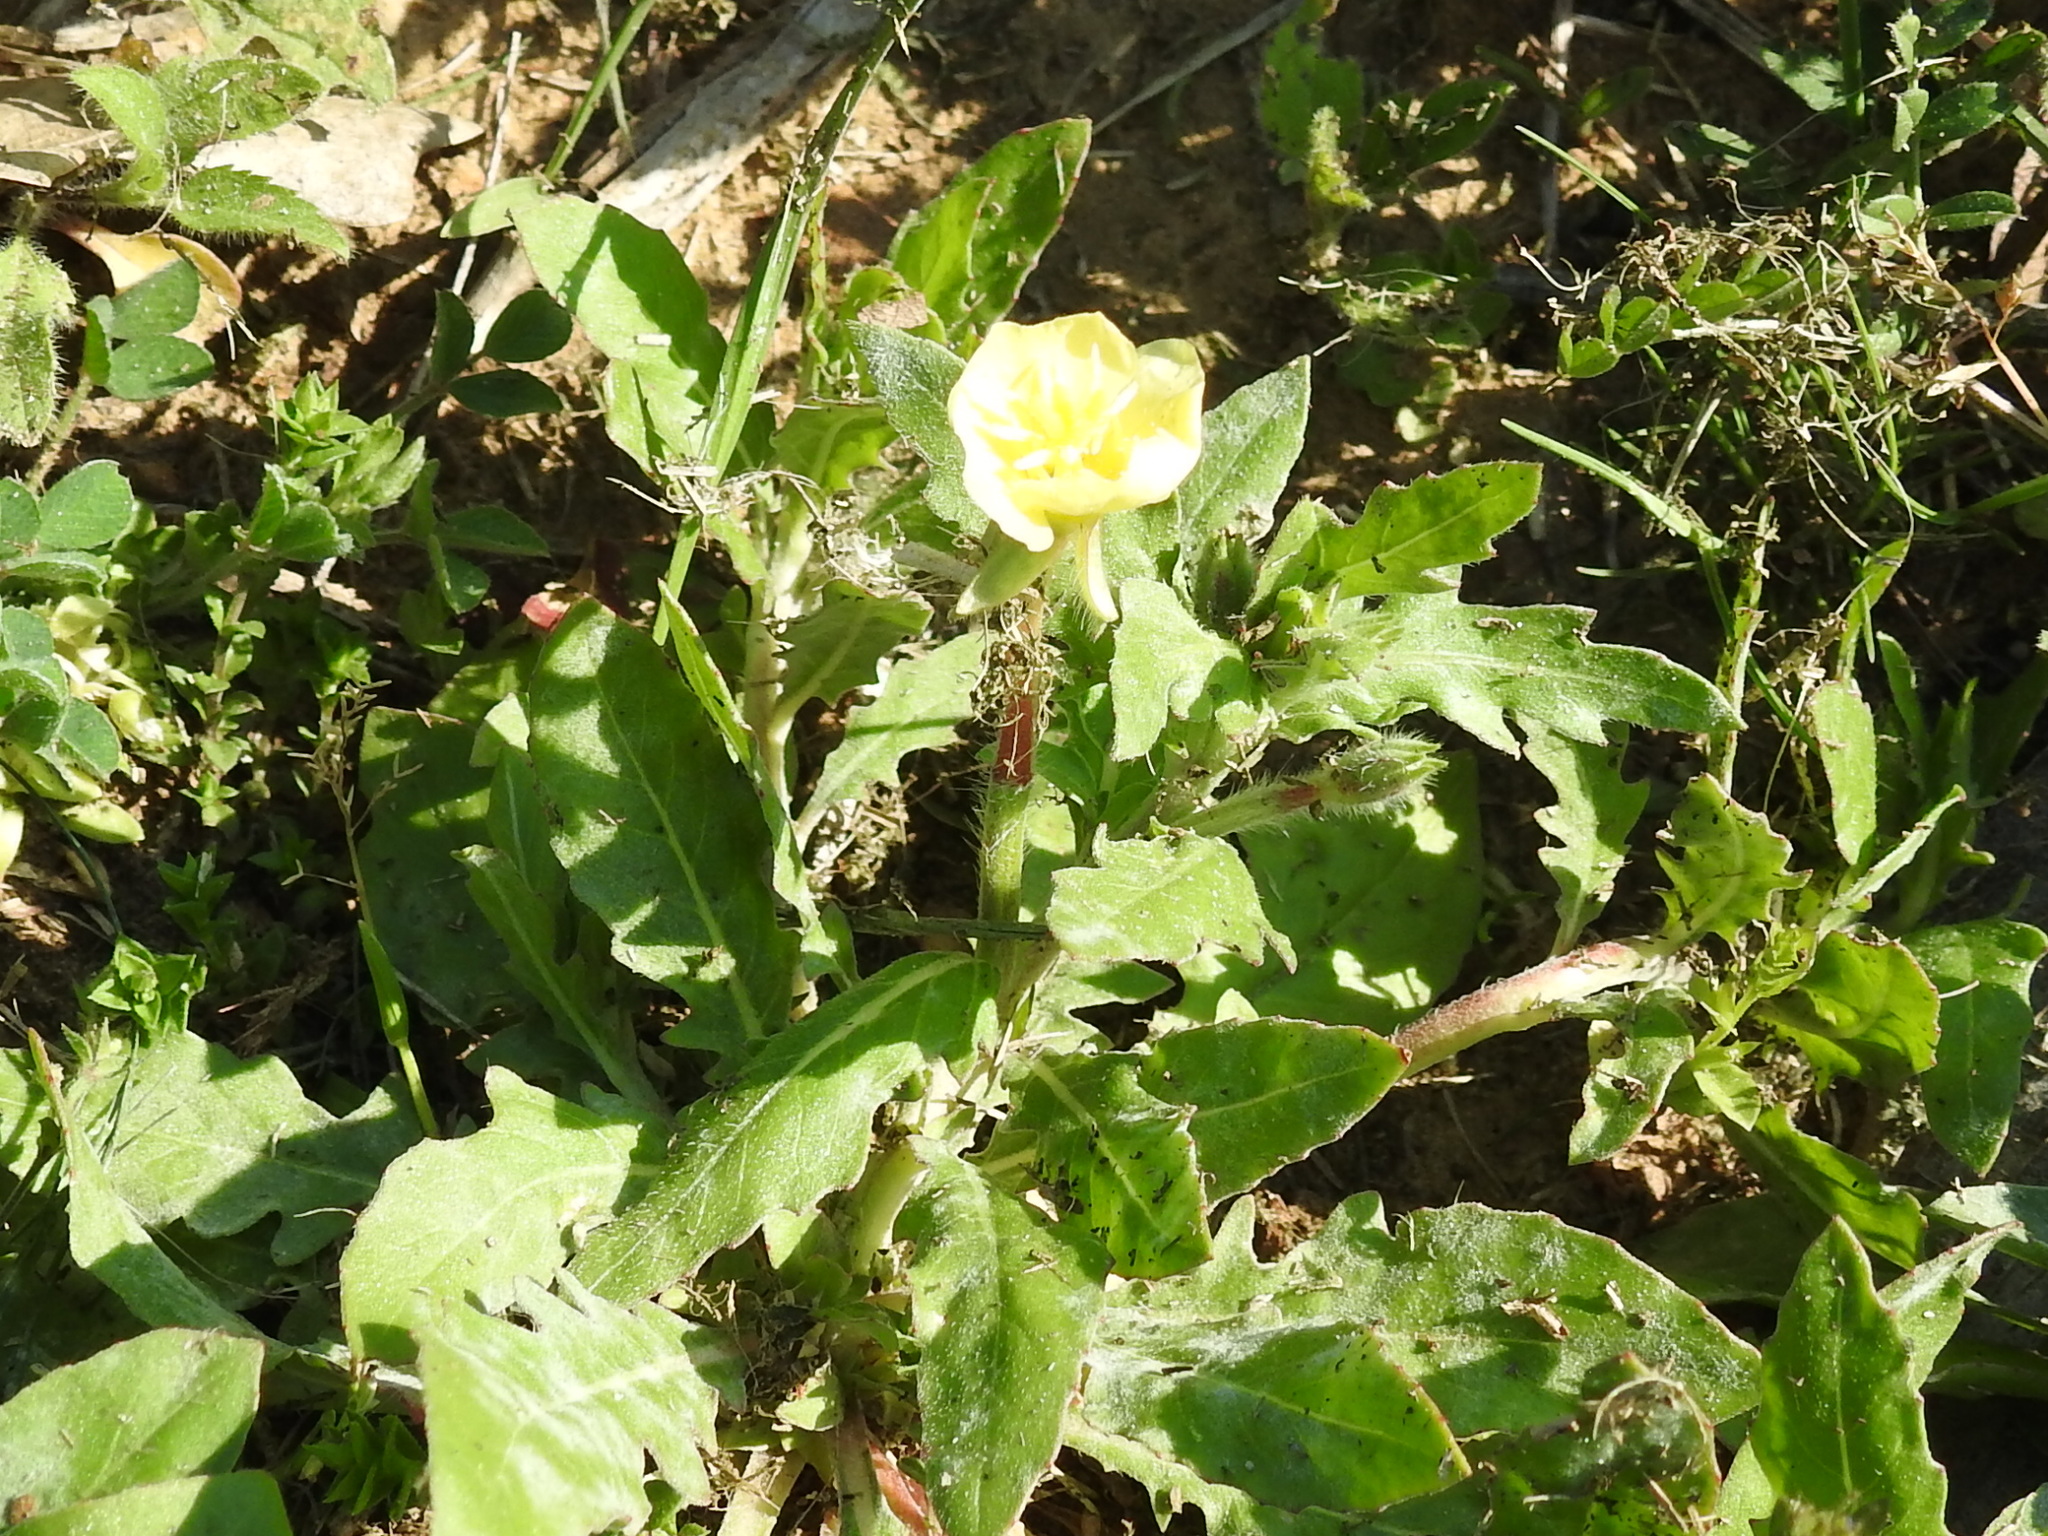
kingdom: Plantae
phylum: Tracheophyta
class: Magnoliopsida
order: Myrtales
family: Onagraceae
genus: Oenothera
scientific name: Oenothera laciniata
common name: Cut-leaved evening-primrose
